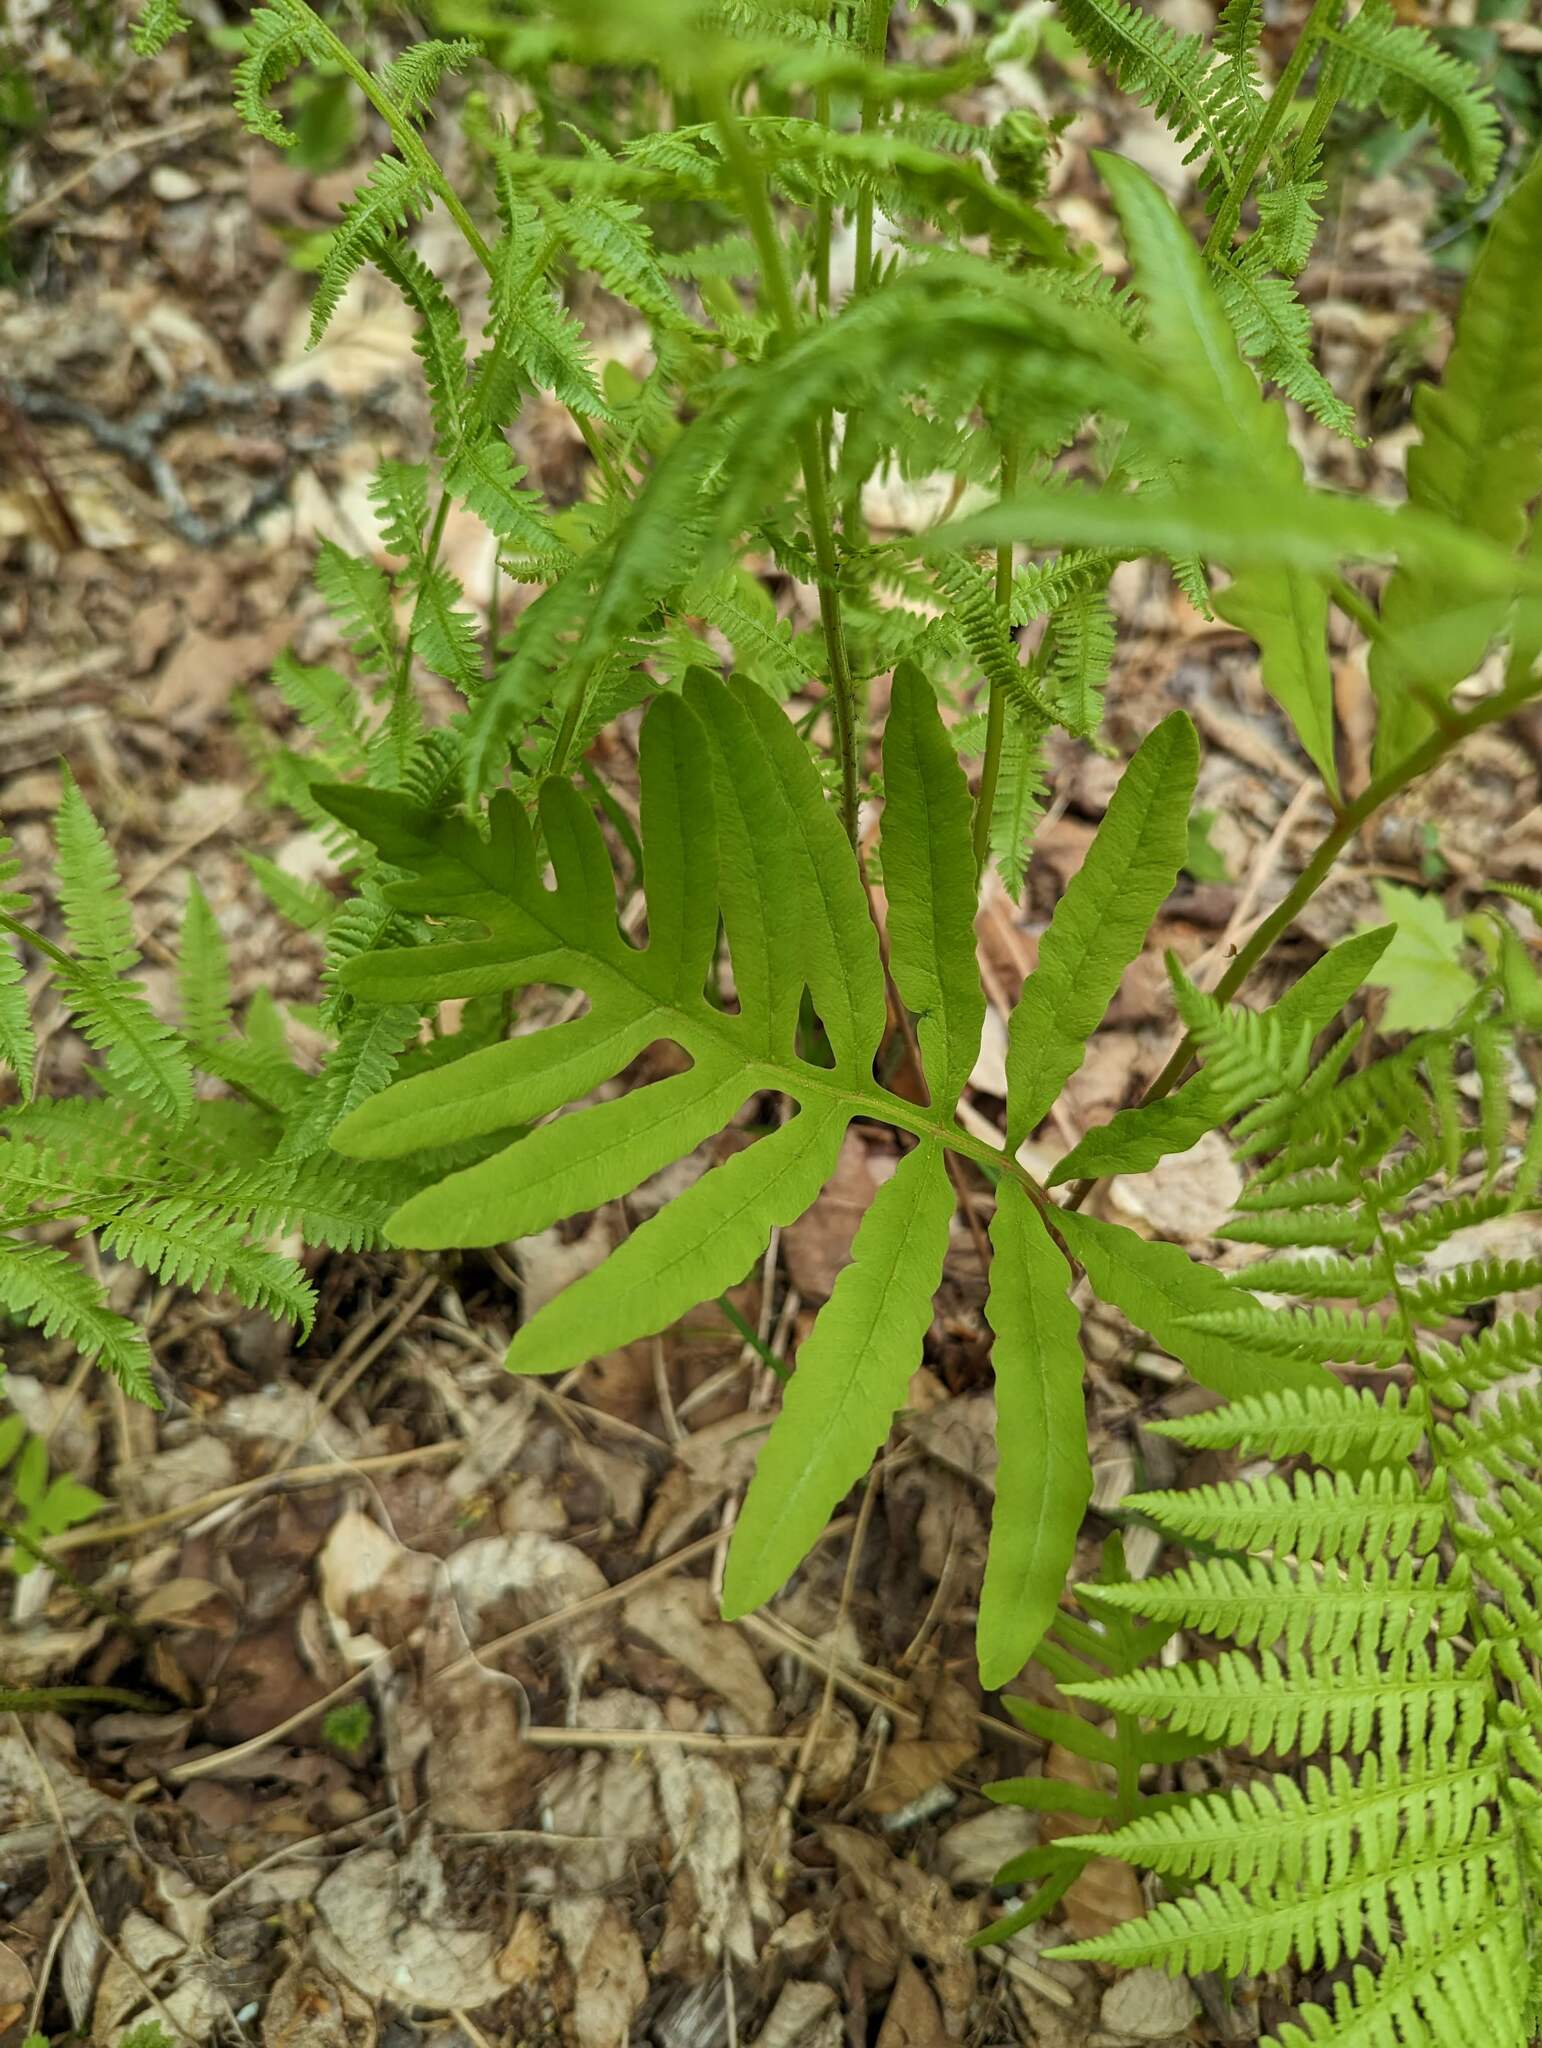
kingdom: Plantae
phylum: Tracheophyta
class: Polypodiopsida
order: Polypodiales
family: Onocleaceae
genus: Onoclea
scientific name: Onoclea sensibilis
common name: Sensitive fern
